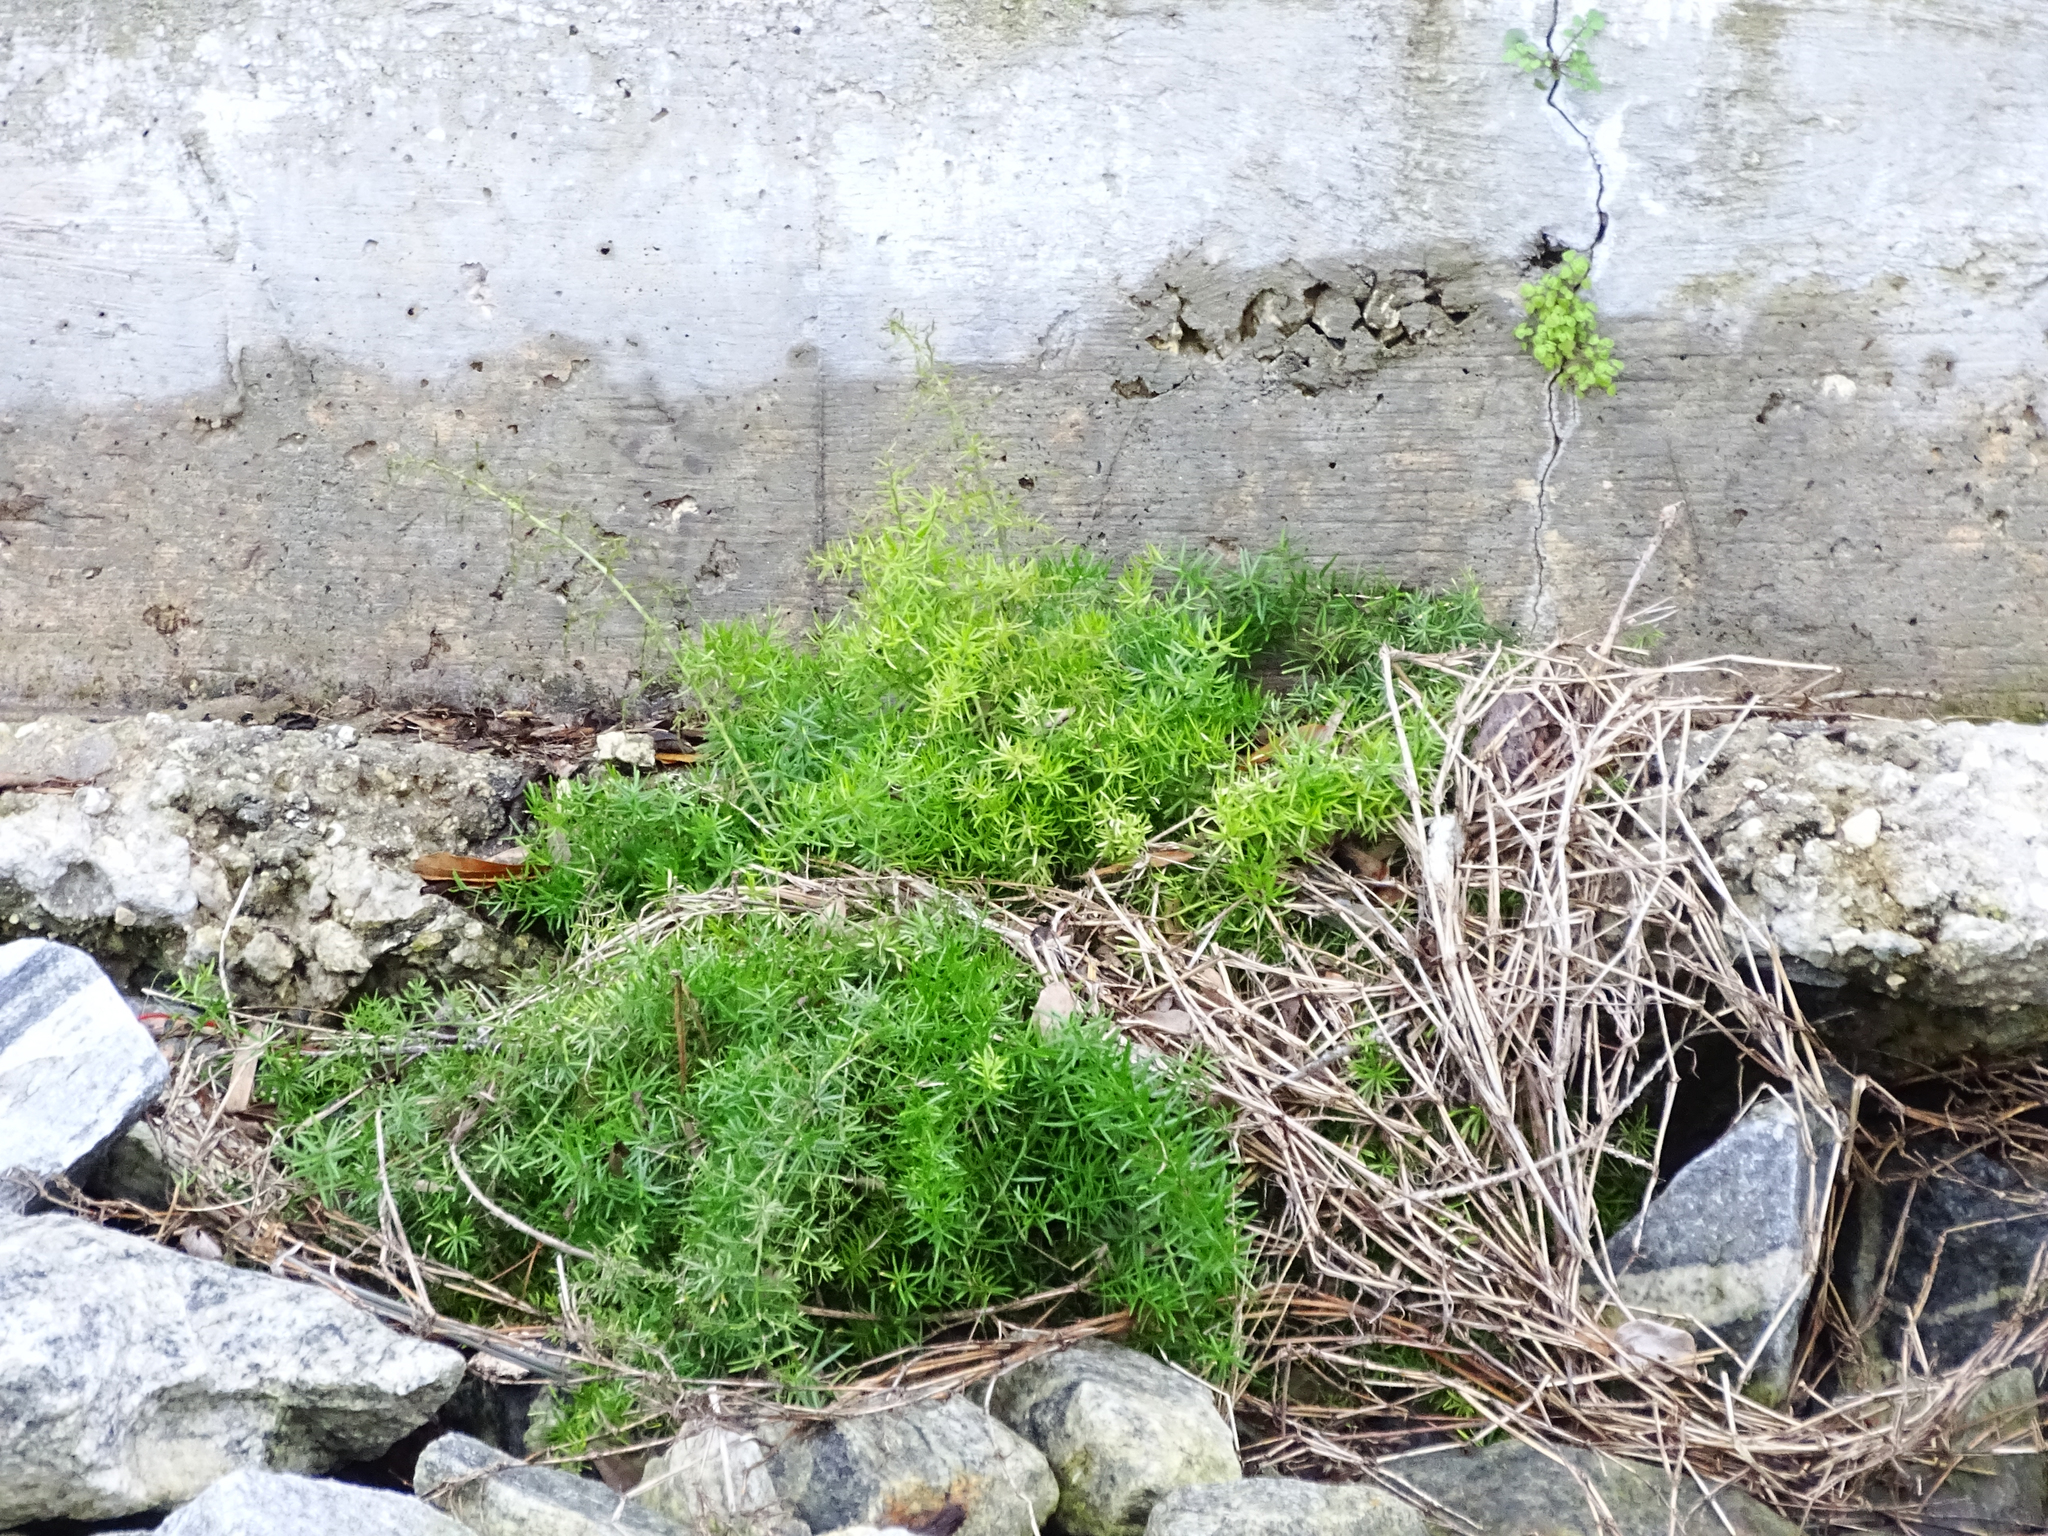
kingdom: Plantae
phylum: Tracheophyta
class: Liliopsida
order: Asparagales
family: Asparagaceae
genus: Asparagus
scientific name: Asparagus aethiopicus
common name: Sprenger's asparagus fern
